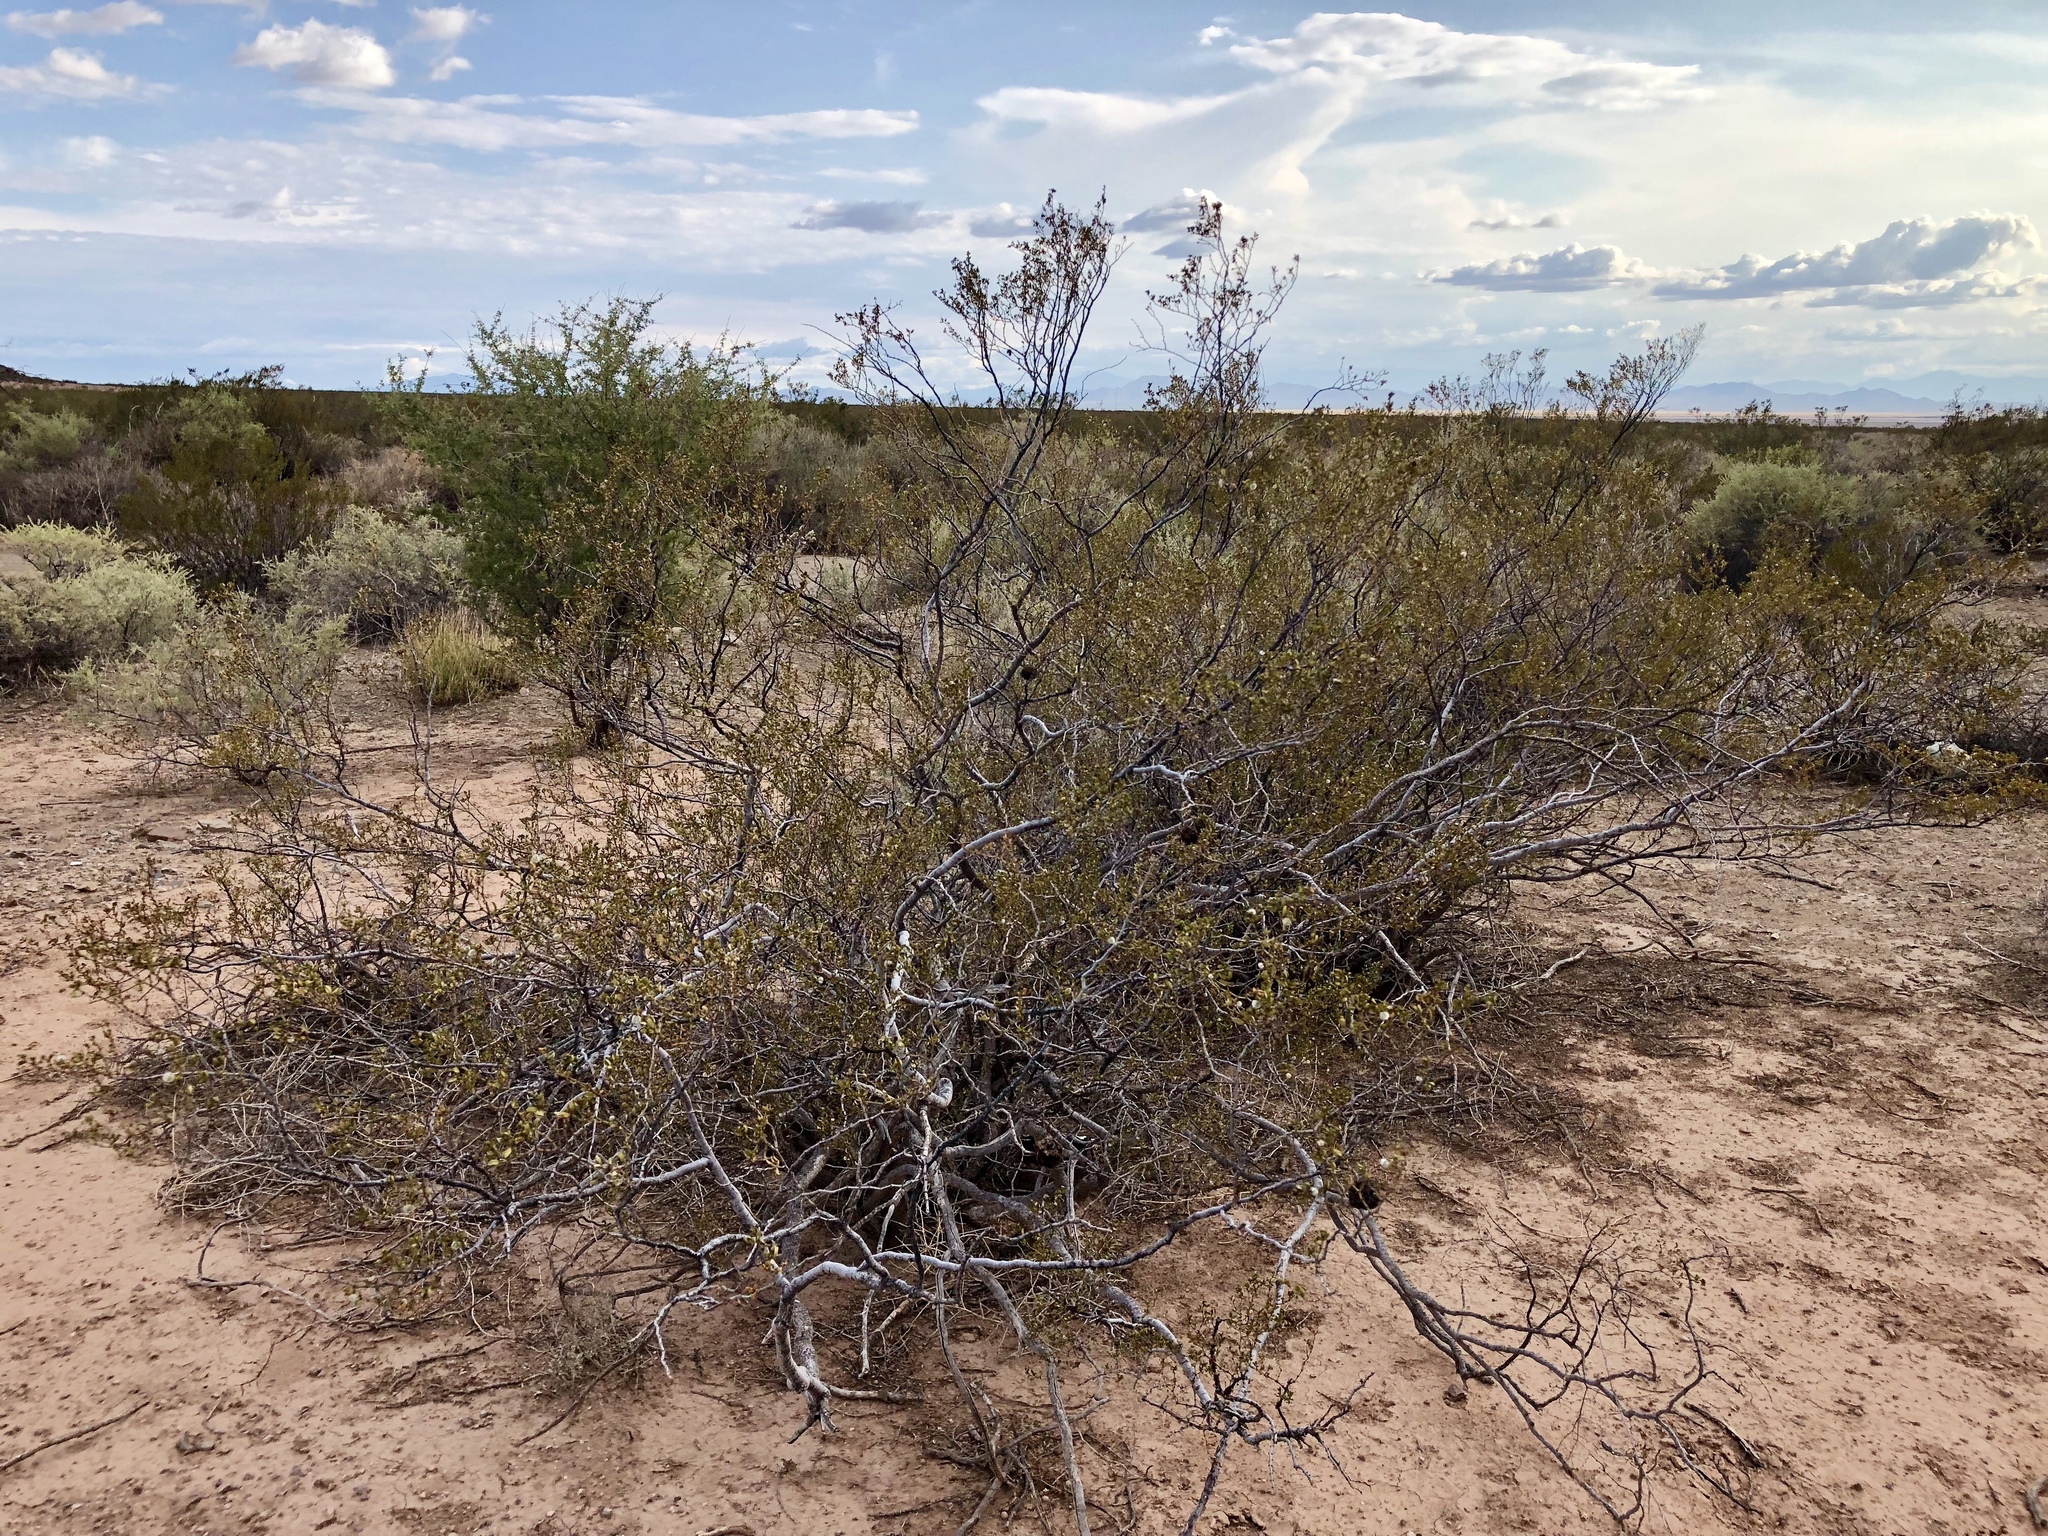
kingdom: Plantae
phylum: Tracheophyta
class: Magnoliopsida
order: Zygophyllales
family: Zygophyllaceae
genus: Larrea
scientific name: Larrea tridentata
